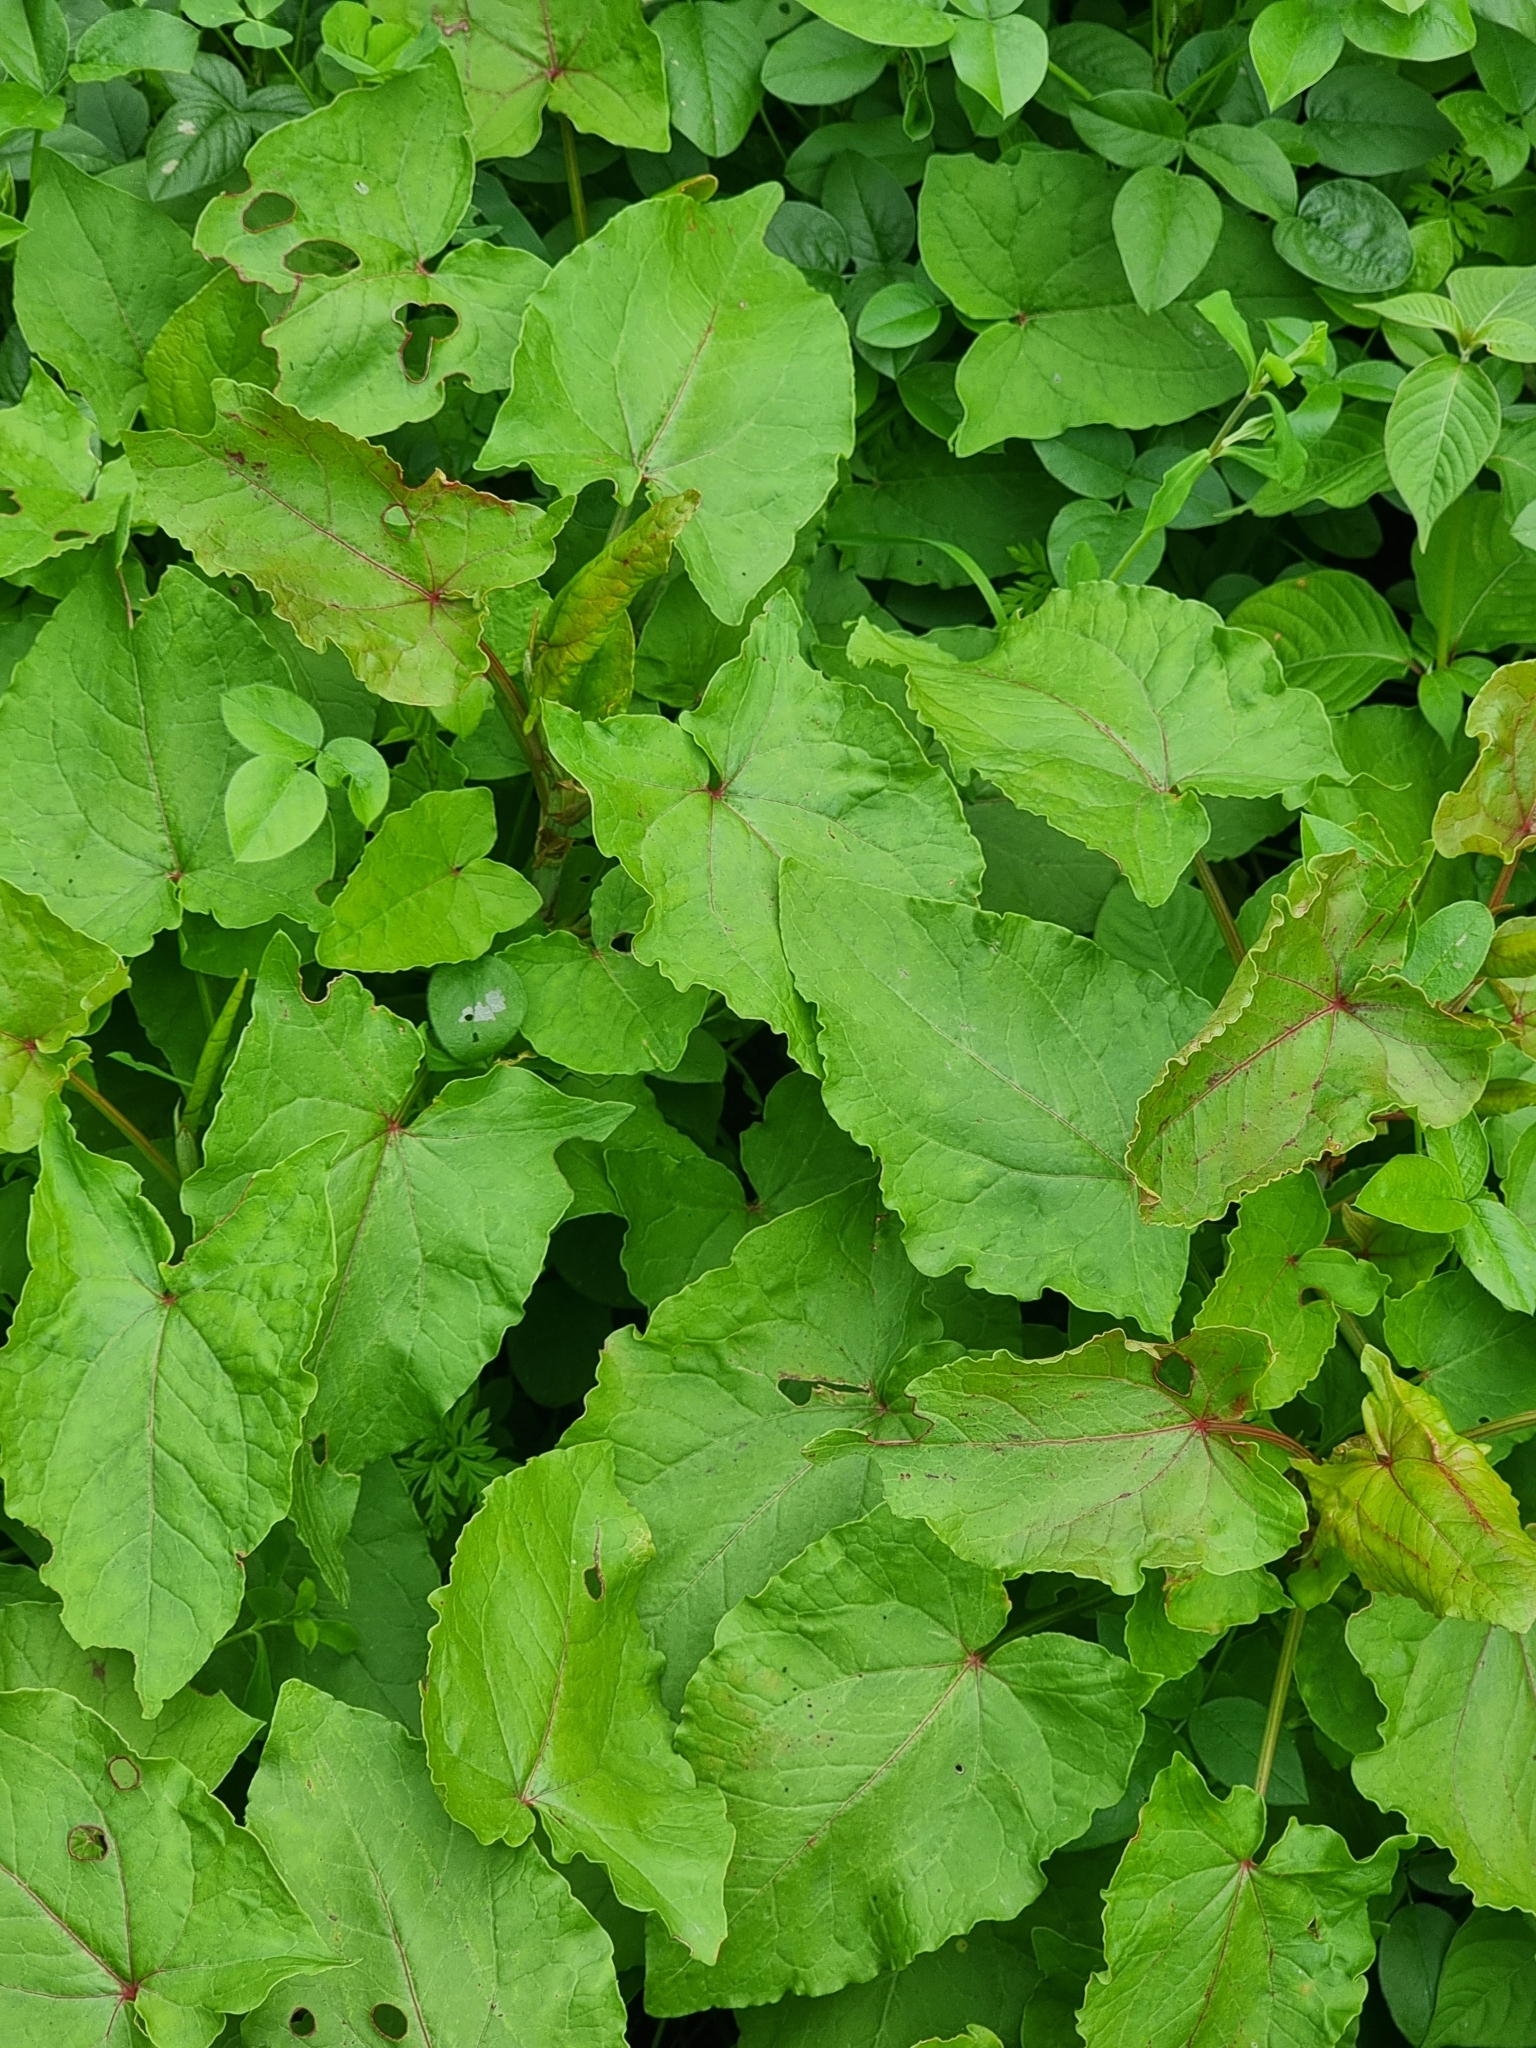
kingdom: Plantae
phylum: Tracheophyta
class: Magnoliopsida
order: Caryophyllales
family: Polygonaceae
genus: Rumex
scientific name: Rumex maderensis
